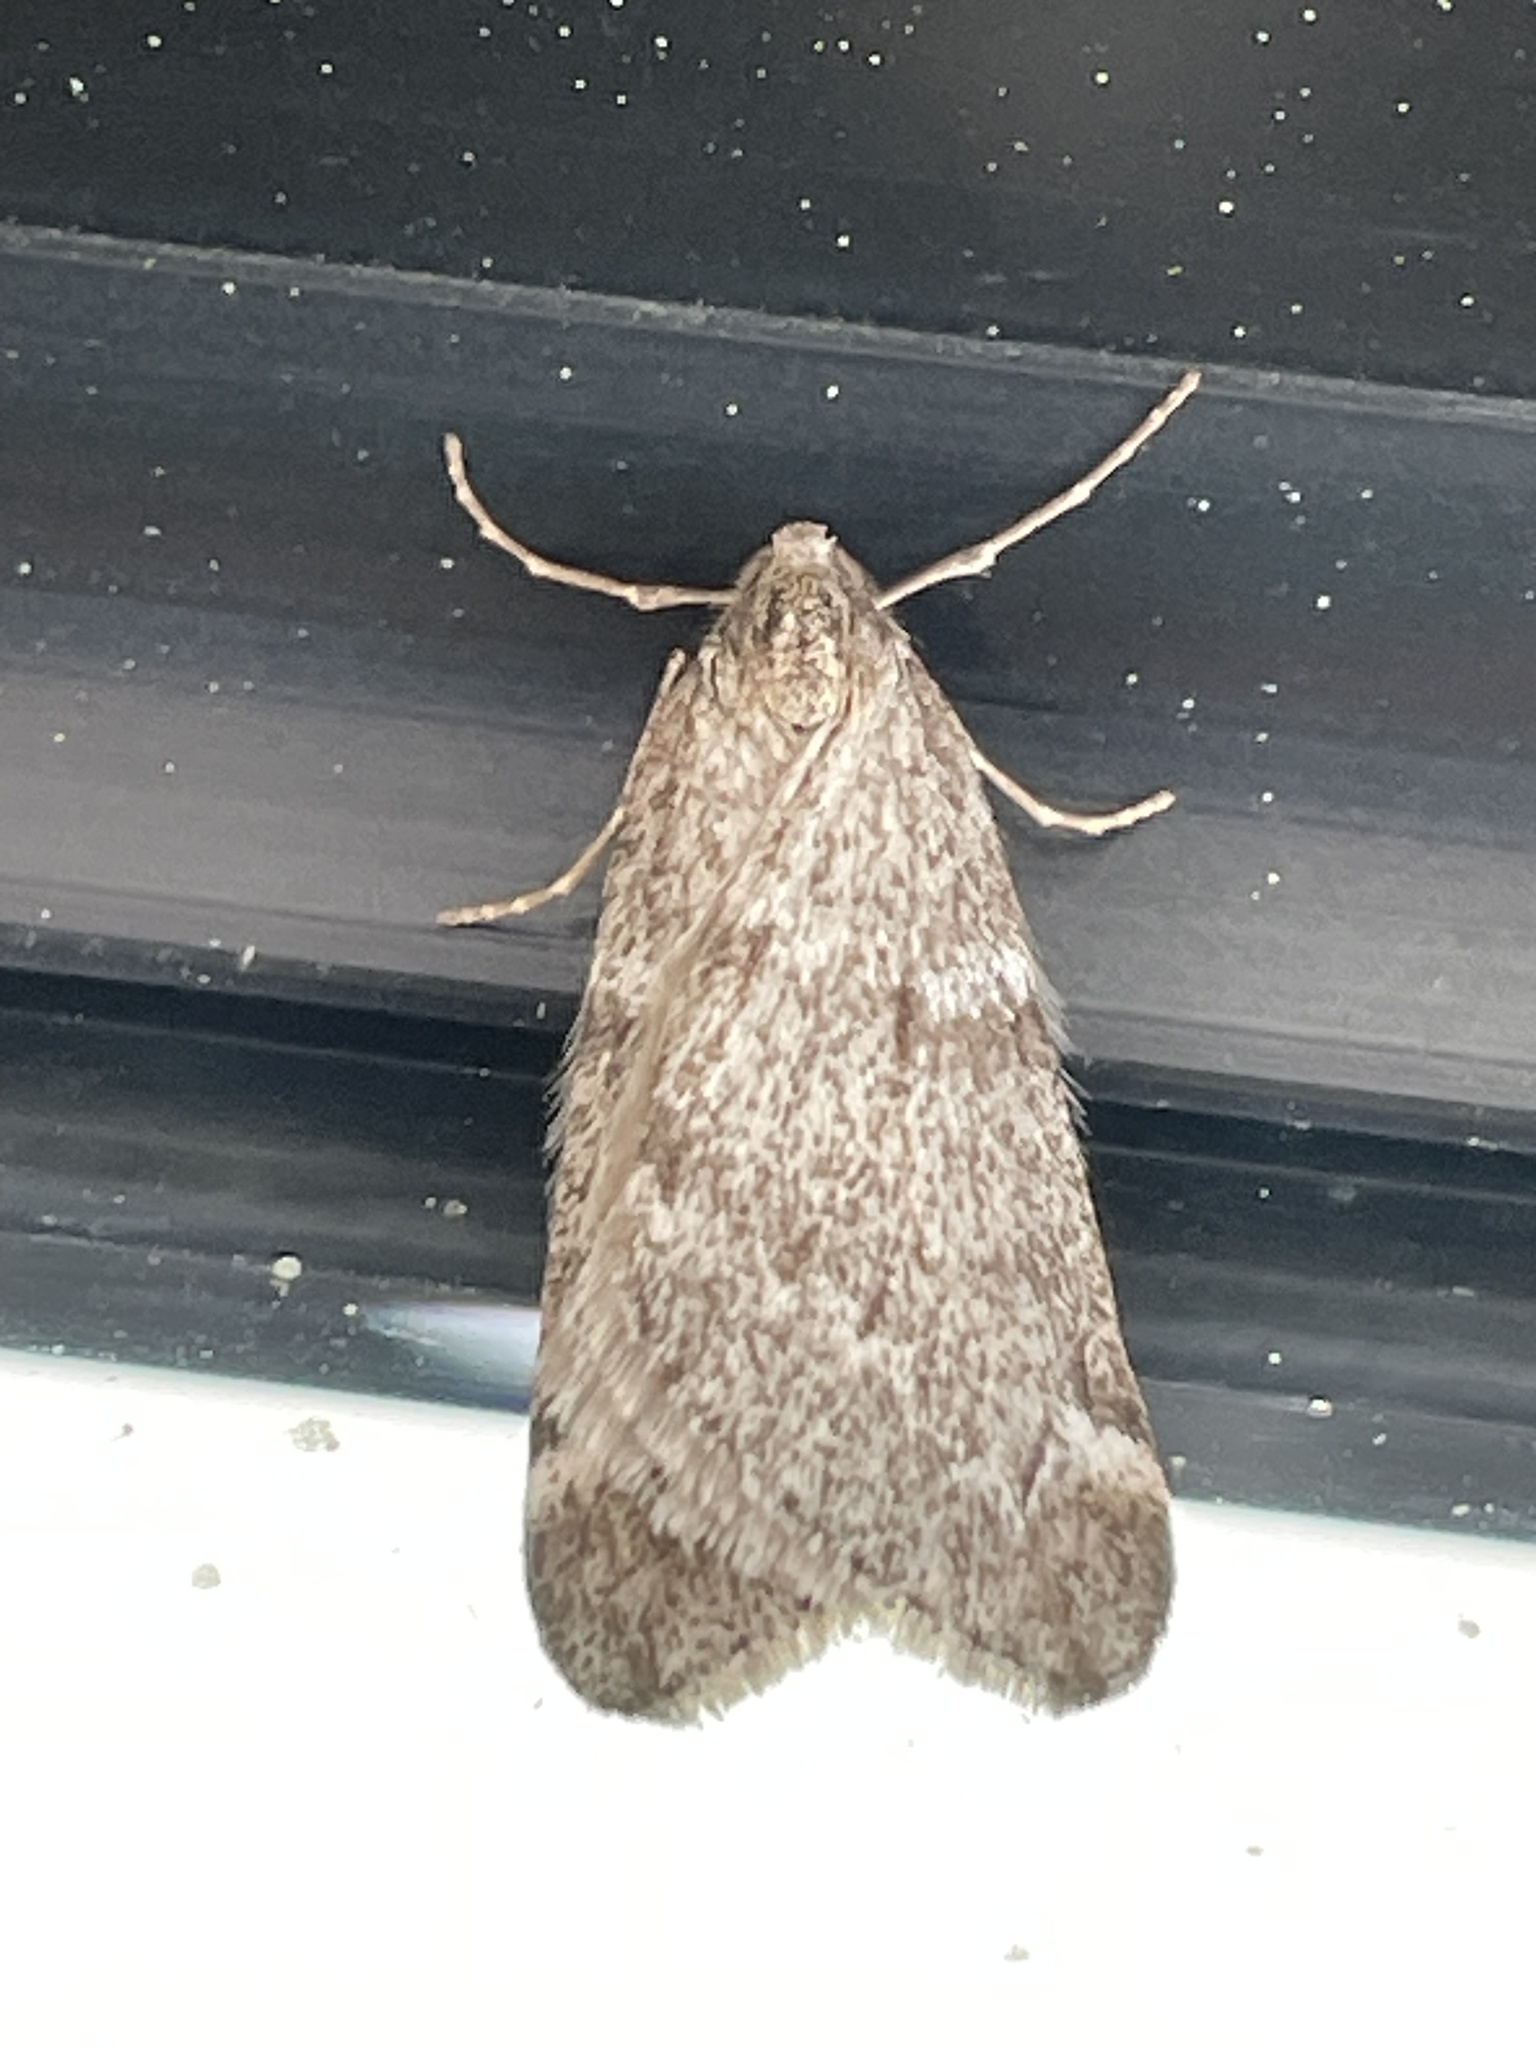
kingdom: Animalia
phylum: Arthropoda
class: Insecta
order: Lepidoptera
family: Geometridae
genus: Alsophila
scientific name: Alsophila pometaria
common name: Fall cankerworm
